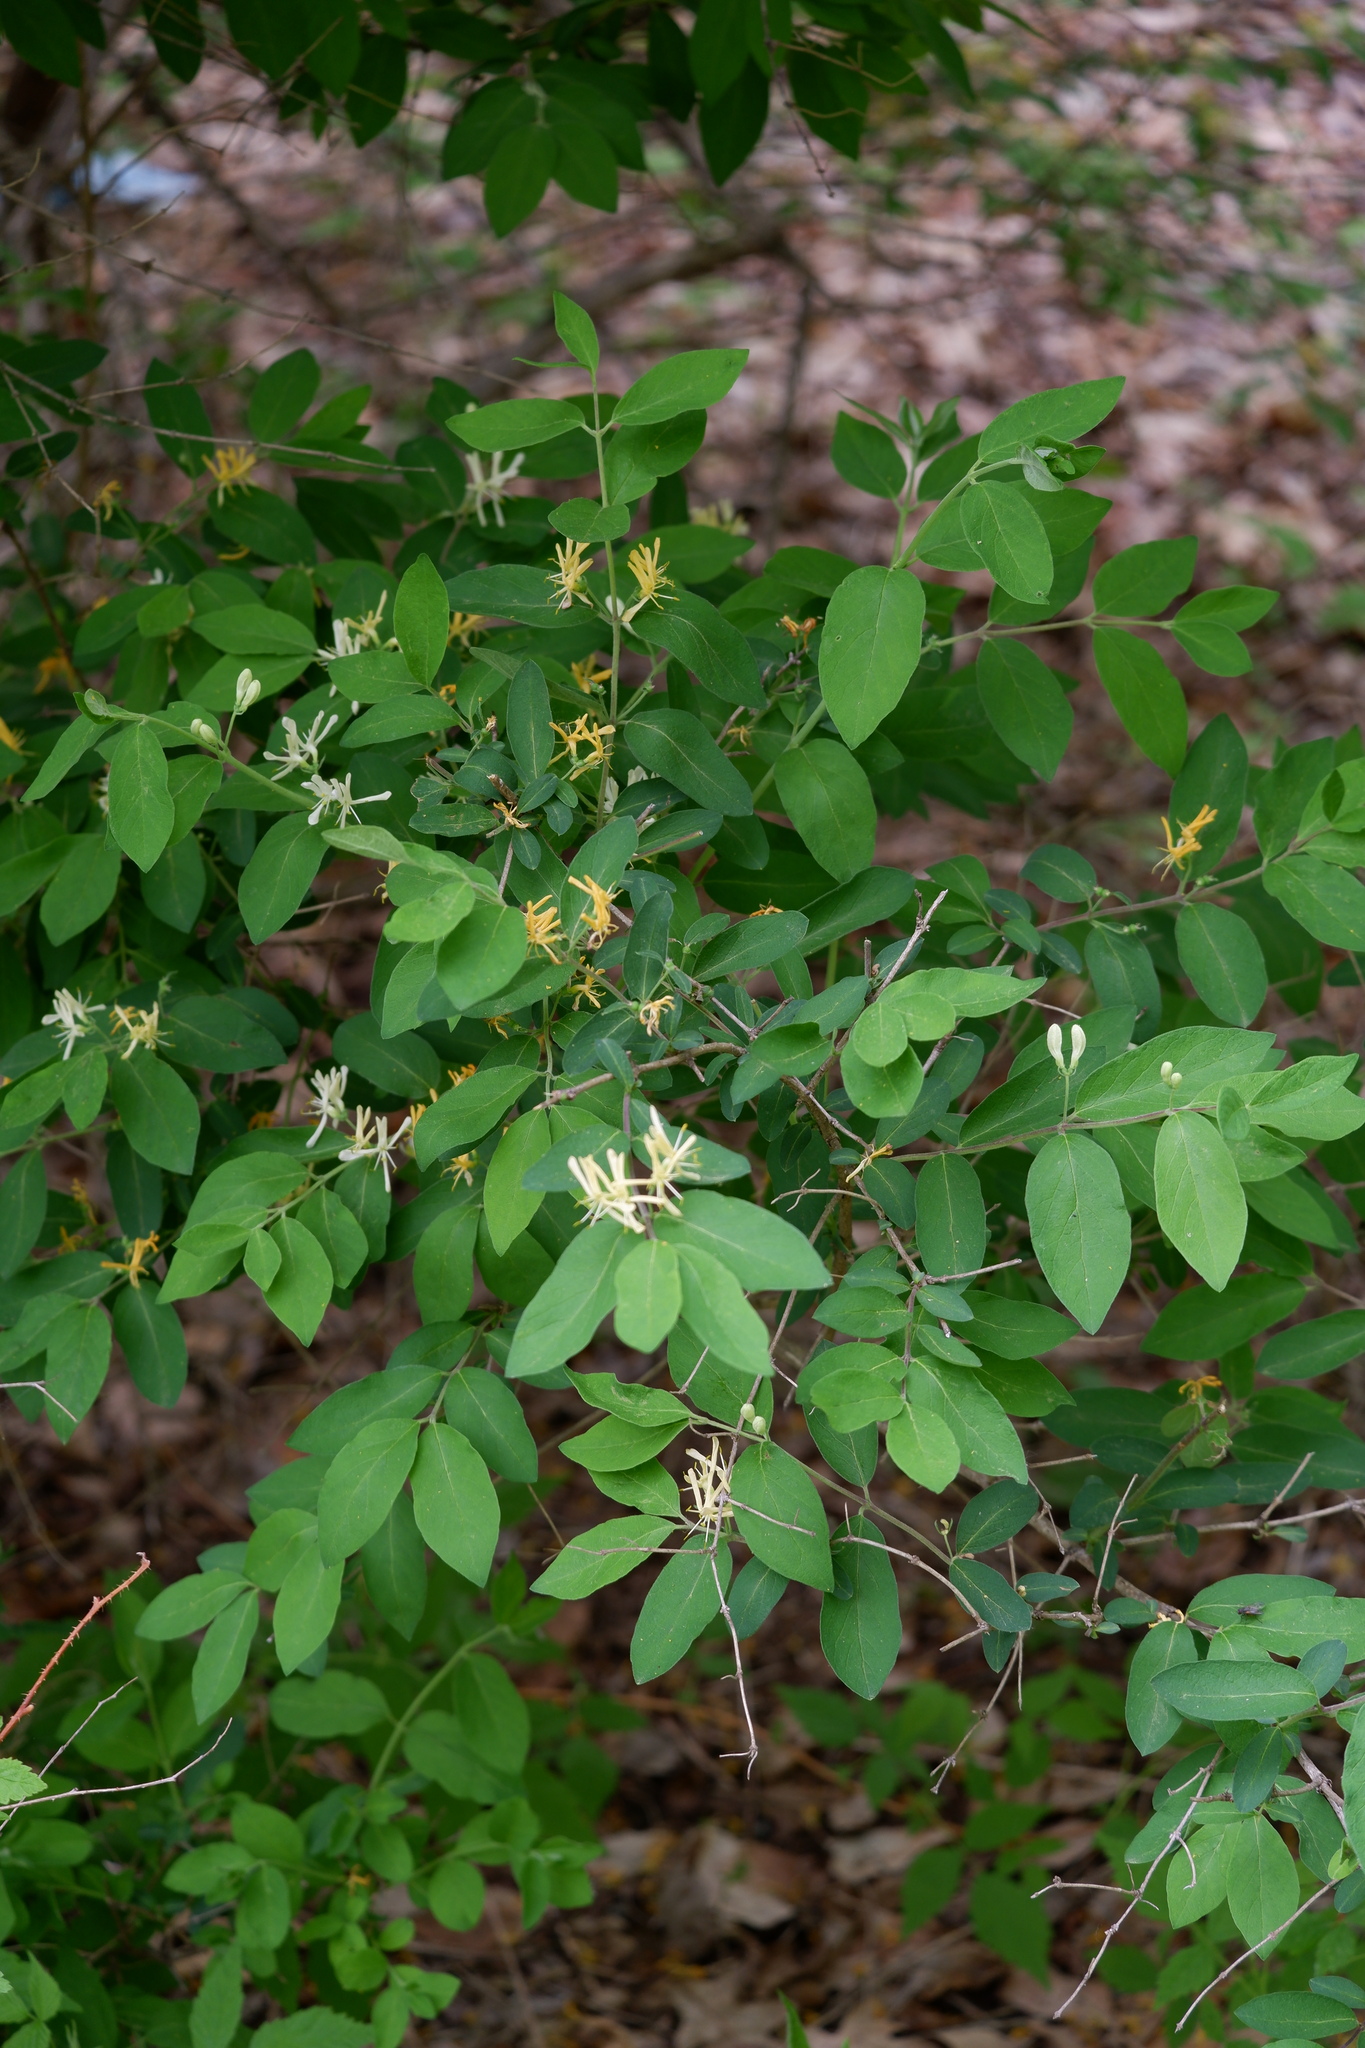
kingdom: Plantae
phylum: Tracheophyta
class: Magnoliopsida
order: Dipsacales
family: Caprifoliaceae
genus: Lonicera
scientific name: Lonicera morrowii
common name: Morrow's honeysuckle
